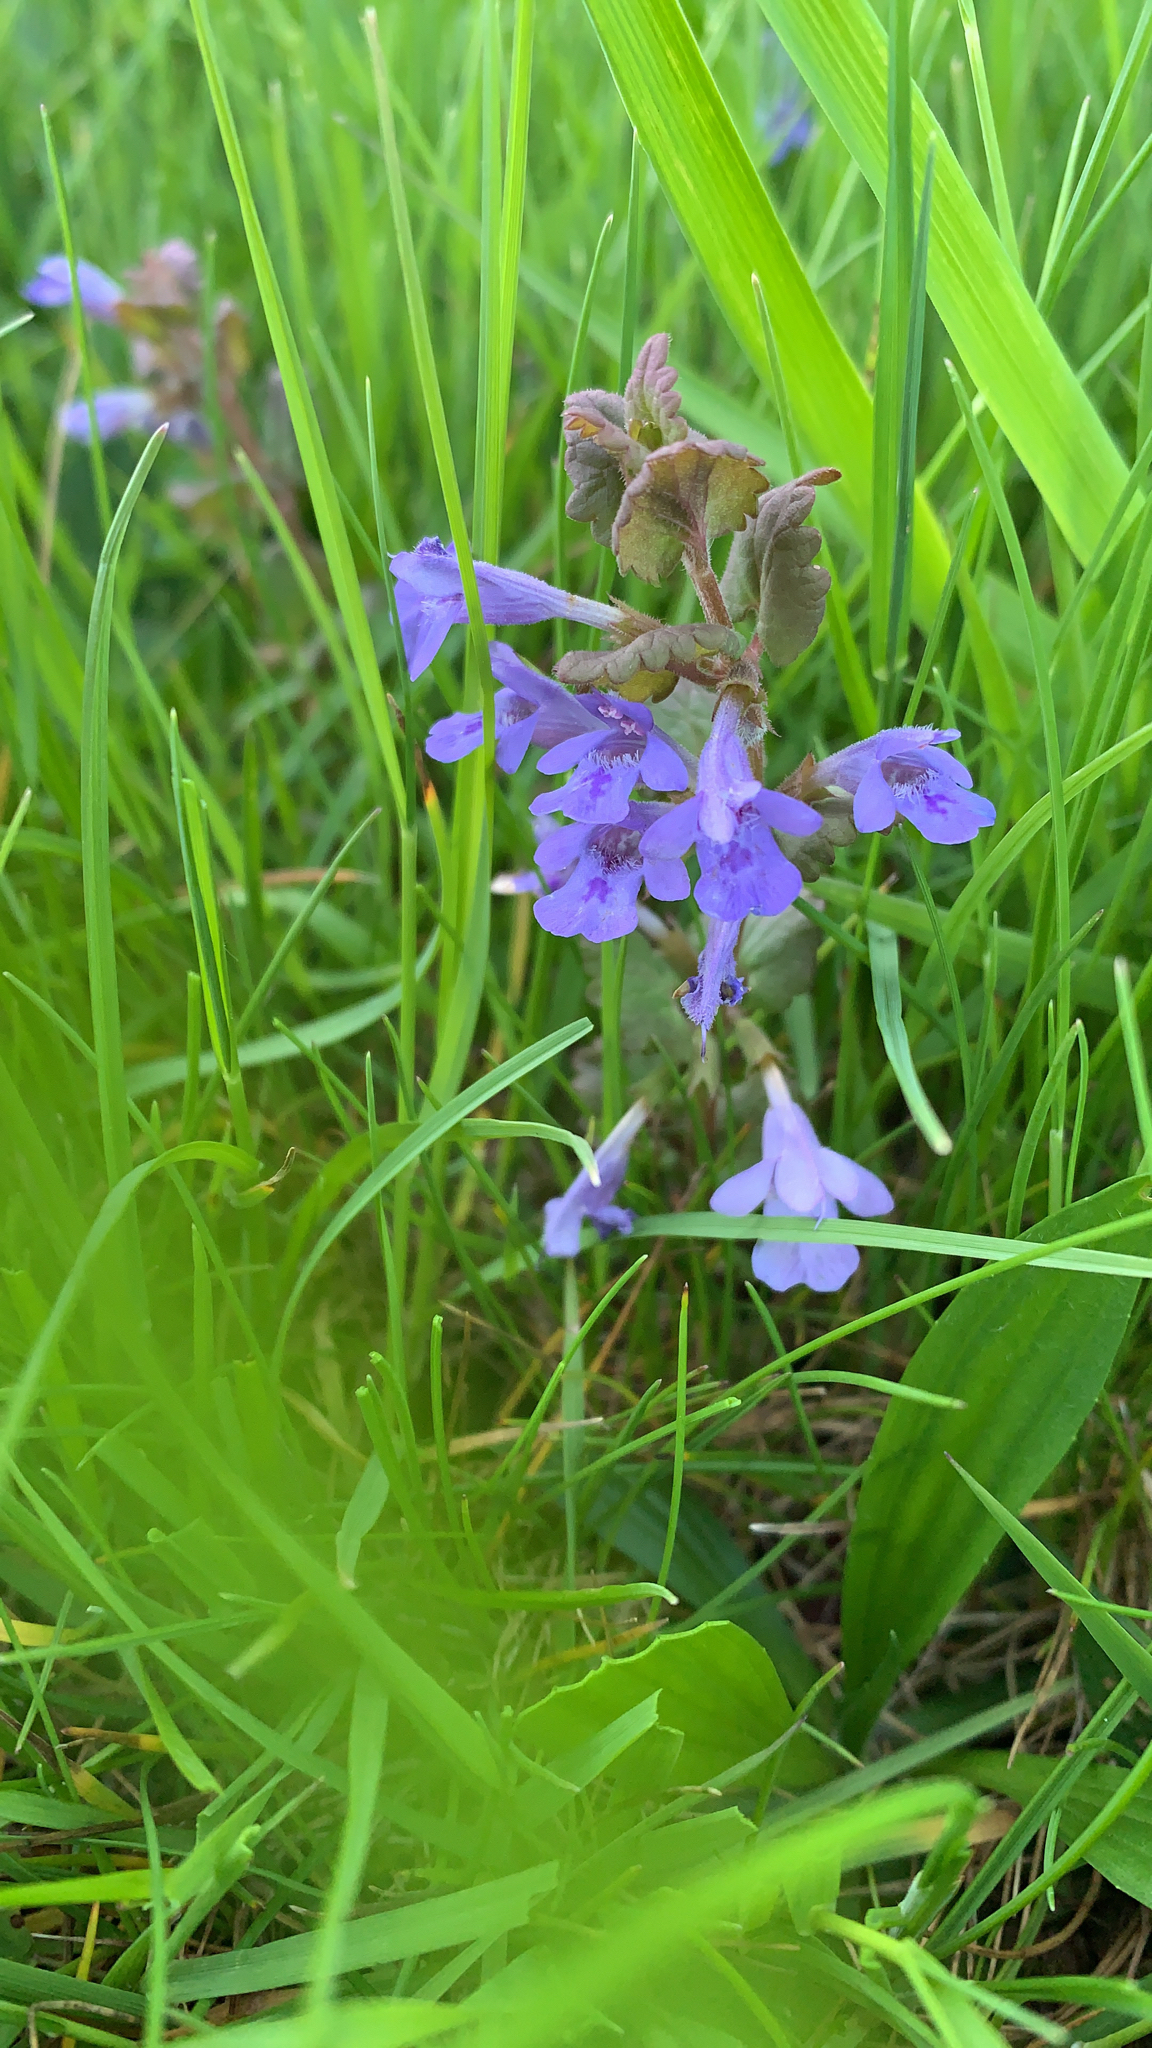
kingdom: Plantae
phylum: Tracheophyta
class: Magnoliopsida
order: Lamiales
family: Lamiaceae
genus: Glechoma
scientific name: Glechoma hederacea
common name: Ground ivy
